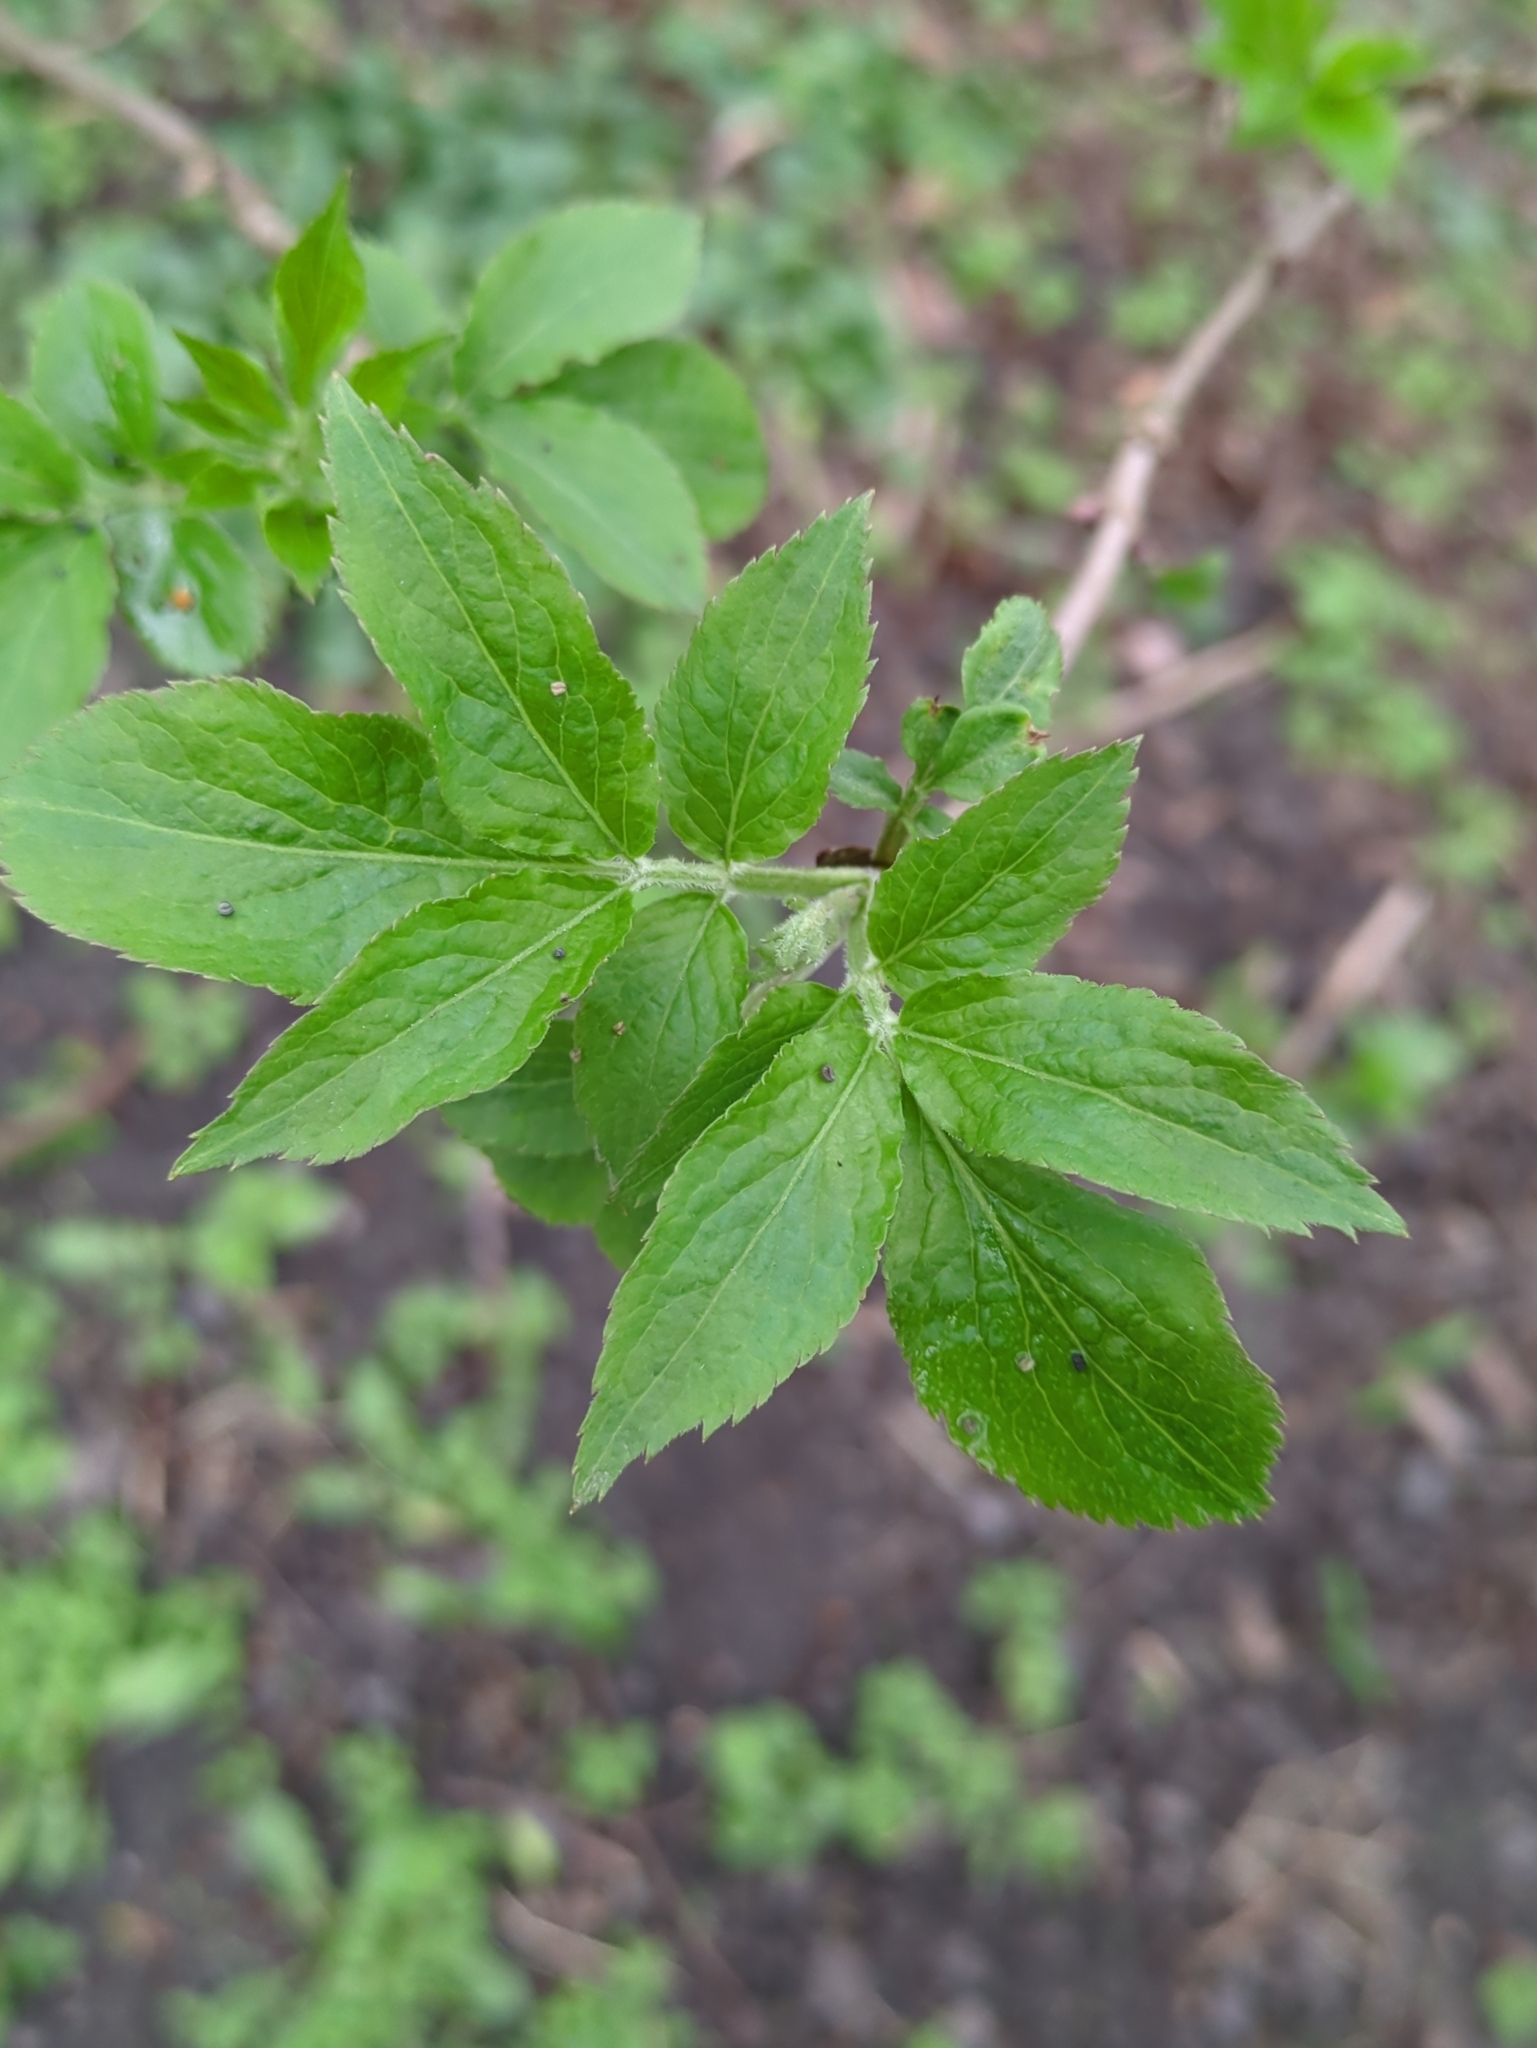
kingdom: Plantae
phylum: Tracheophyta
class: Magnoliopsida
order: Dipsacales
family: Viburnaceae
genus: Sambucus
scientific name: Sambucus nigra
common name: Elder
